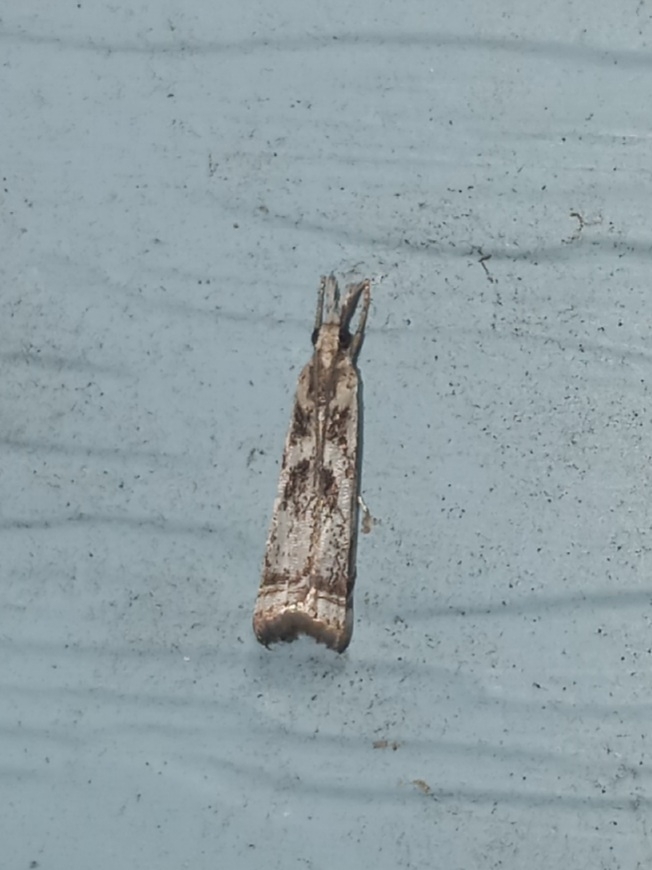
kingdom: Animalia
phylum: Arthropoda
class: Insecta
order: Lepidoptera
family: Crambidae
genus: Microcrambus
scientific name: Microcrambus elegans
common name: Elegant grass-veneer
